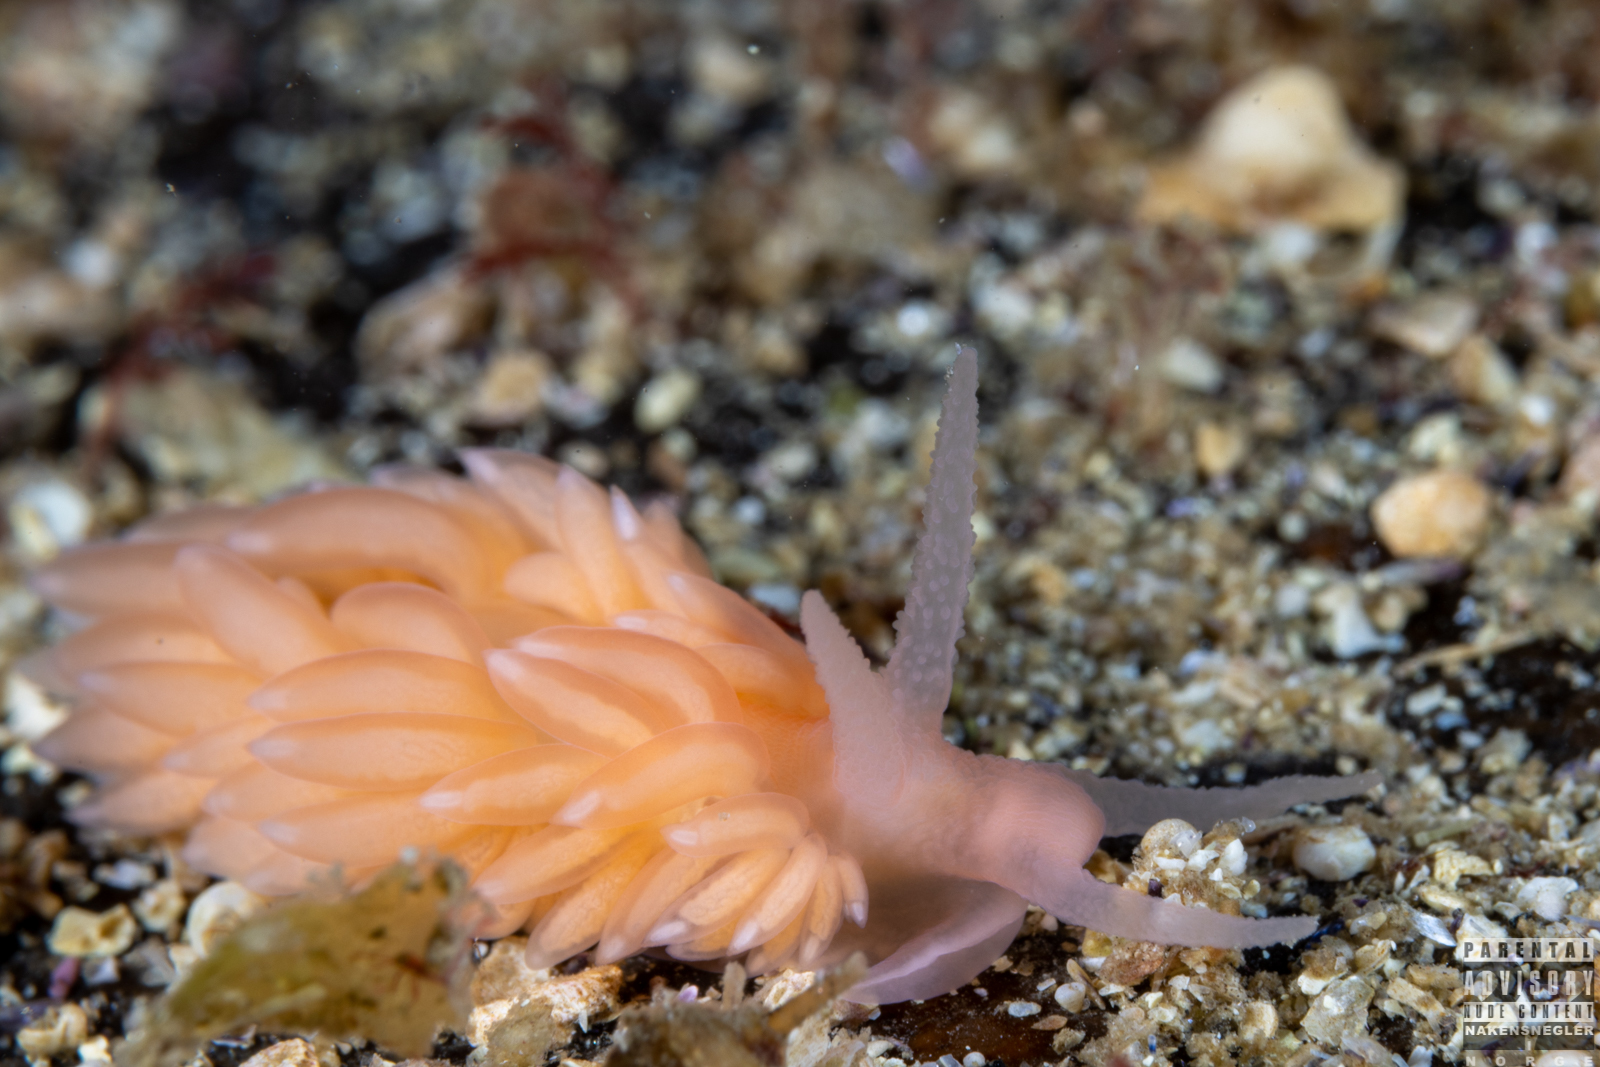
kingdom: Animalia
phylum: Mollusca
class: Gastropoda
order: Nudibranchia
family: Aeolidiidae
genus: Berghia
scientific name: Berghia norvegica
